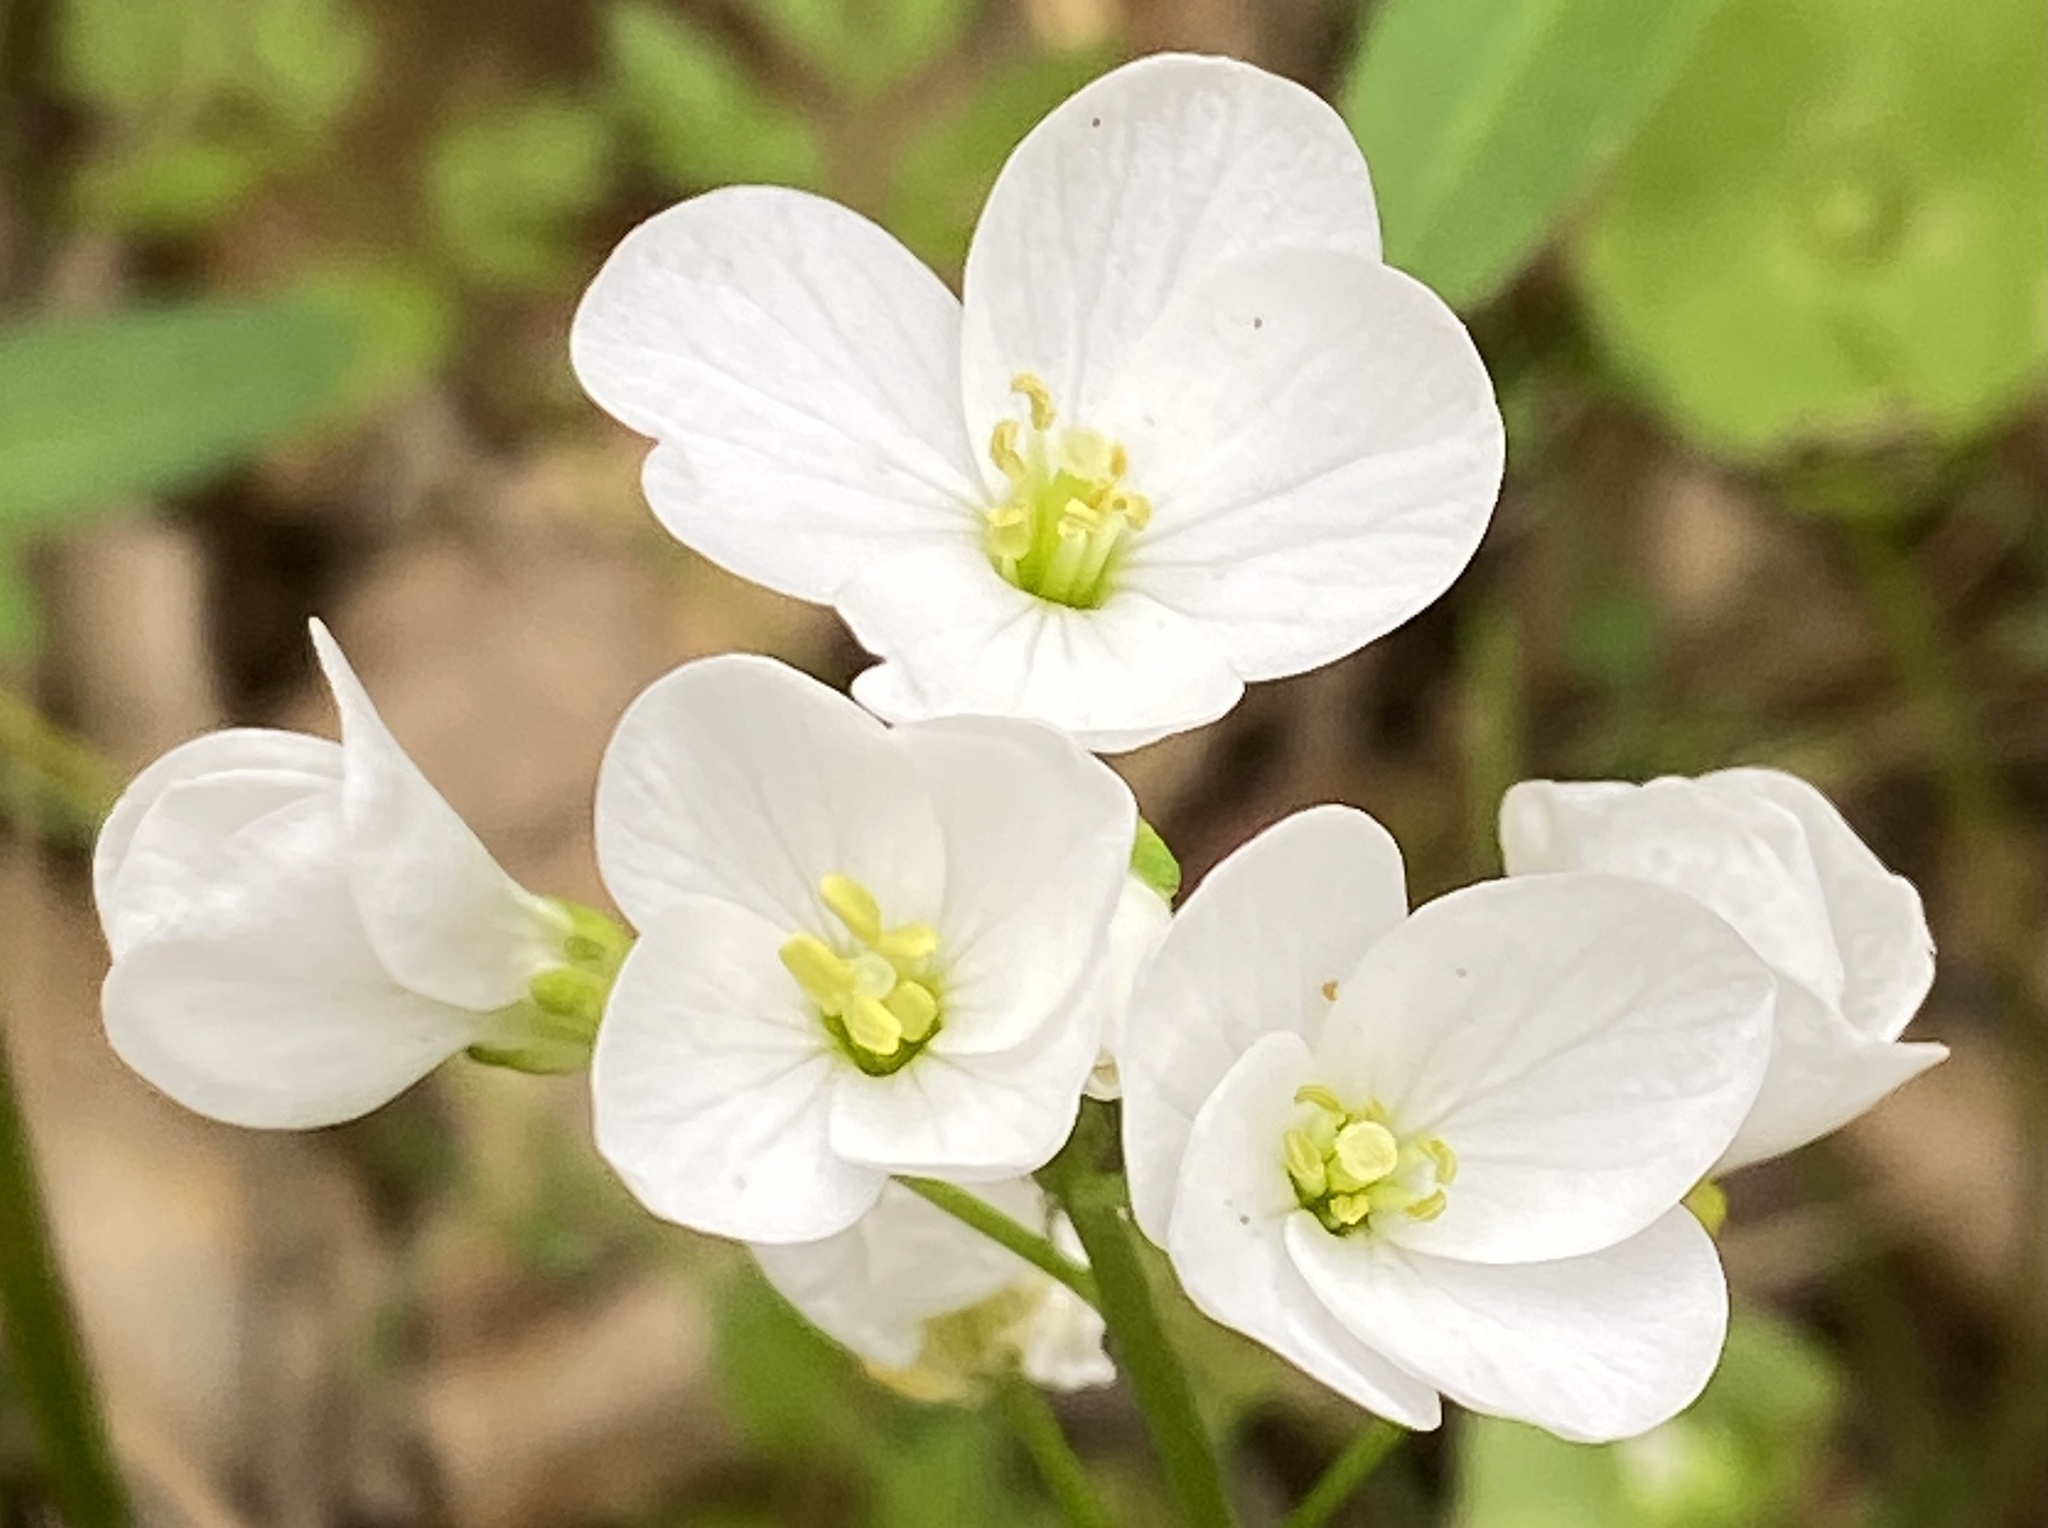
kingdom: Plantae
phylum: Tracheophyta
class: Magnoliopsida
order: Brassicales
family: Brassicaceae
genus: Cardamine
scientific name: Cardamine californica
